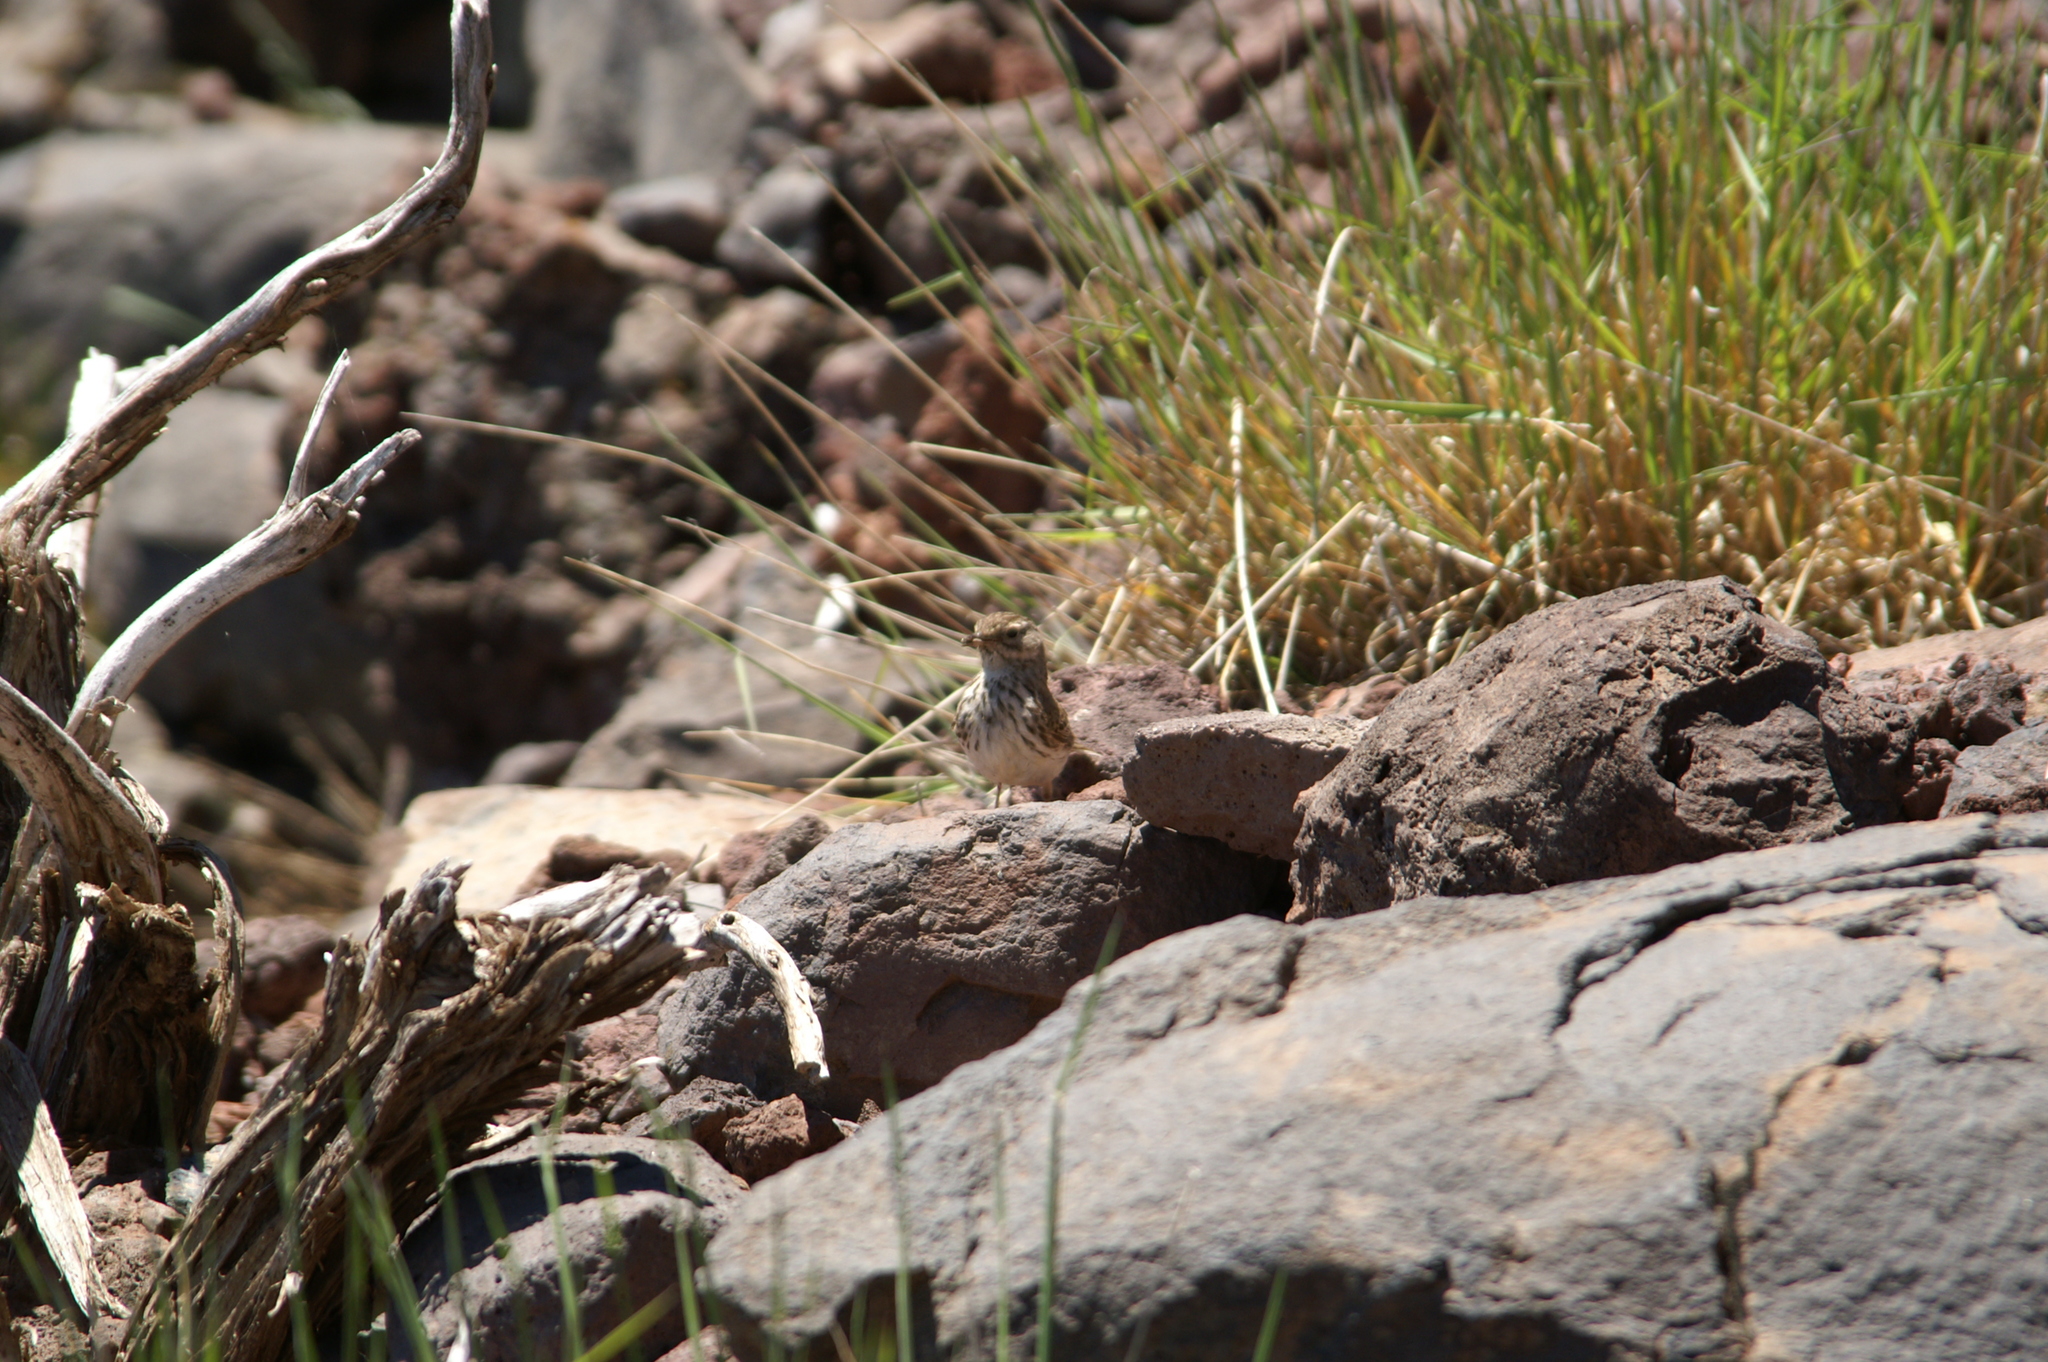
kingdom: Animalia
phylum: Chordata
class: Aves
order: Passeriformes
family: Motacillidae
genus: Anthus
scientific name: Anthus berthelotii
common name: Berthelot's pipit
